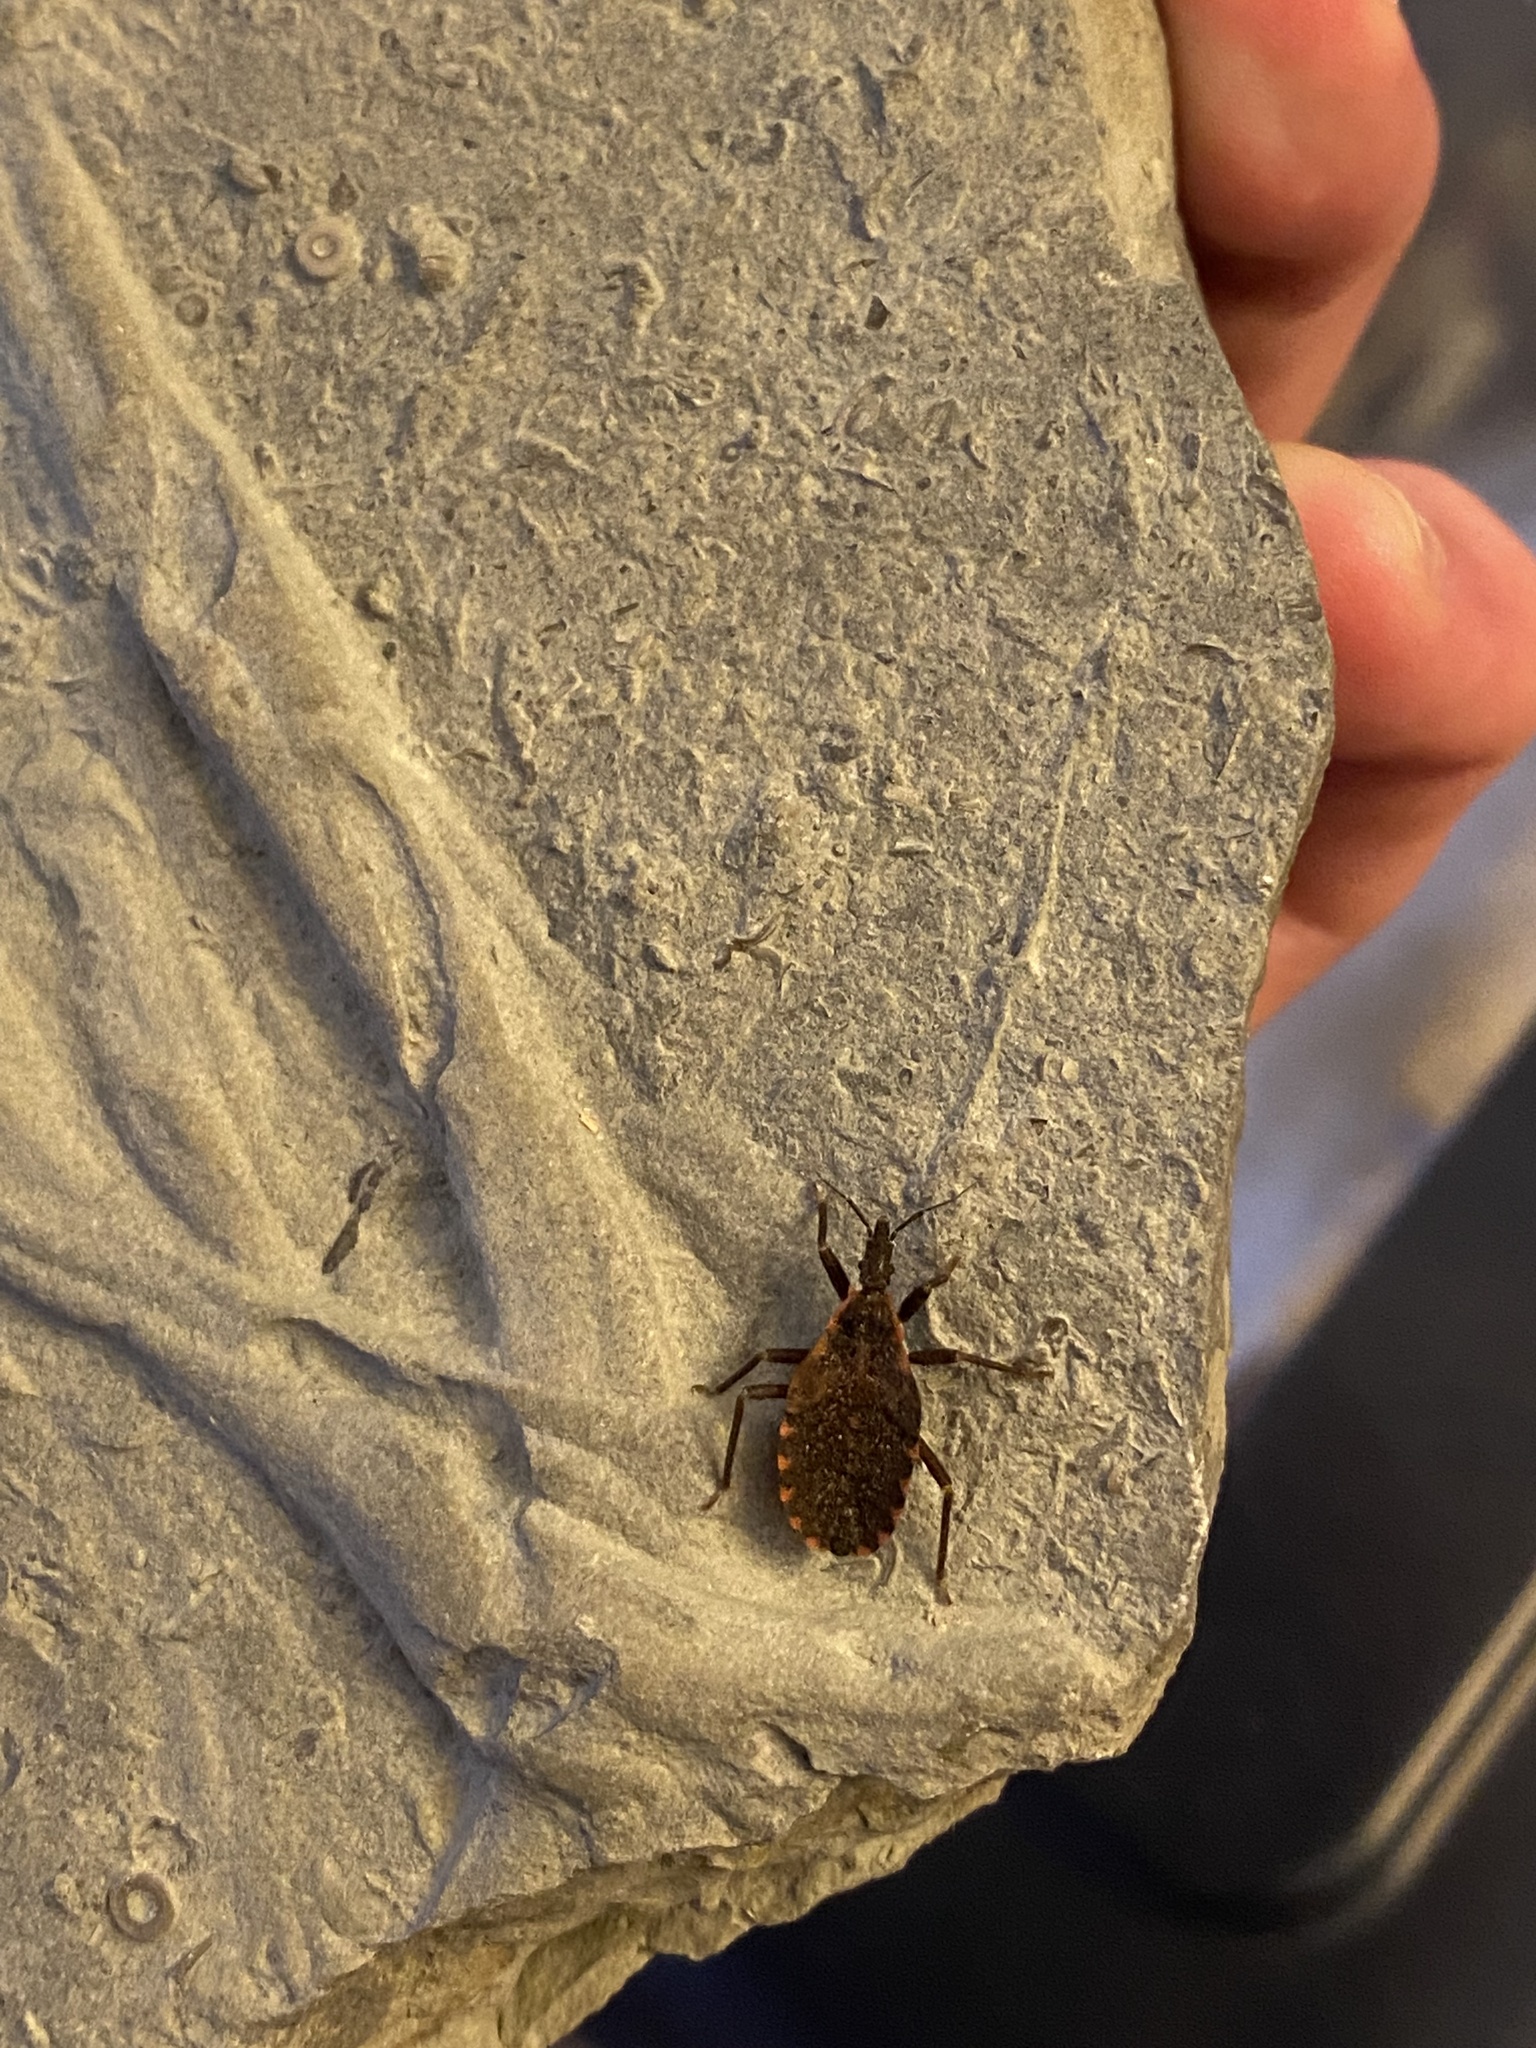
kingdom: Animalia
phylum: Arthropoda
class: Insecta
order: Hemiptera
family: Reduviidae
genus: Triatoma
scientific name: Triatoma sanguisuga
